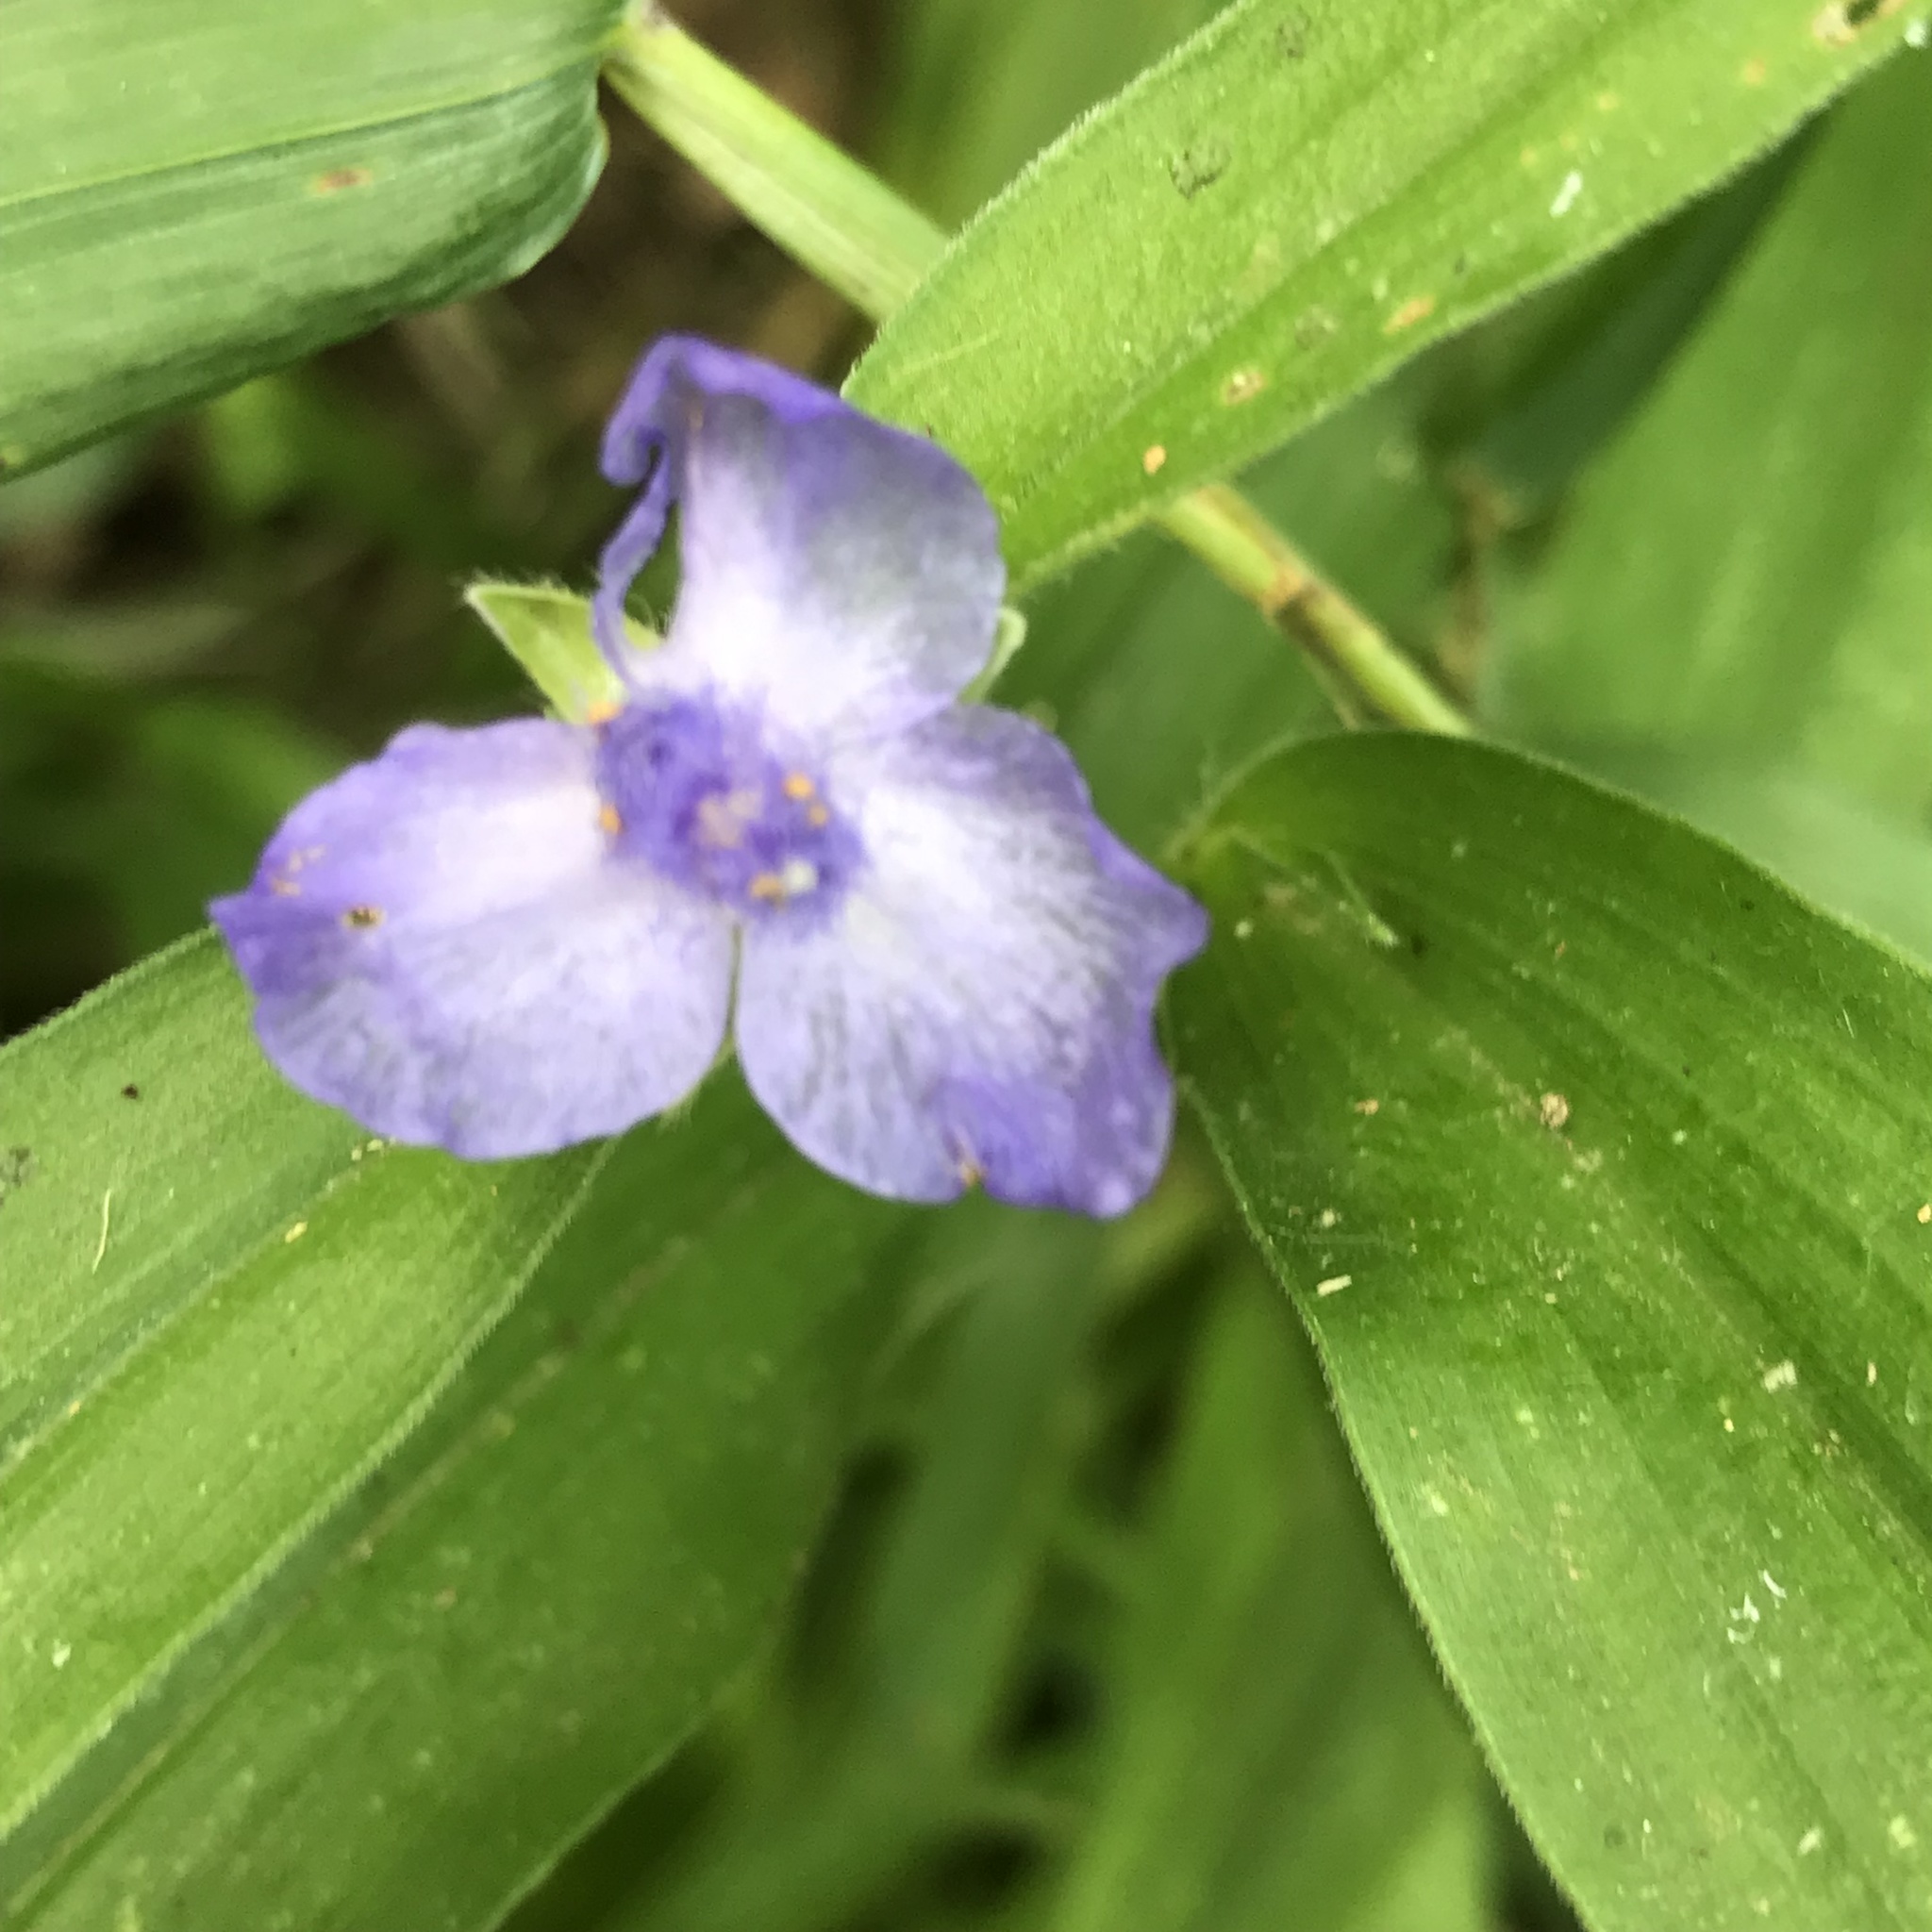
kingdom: Plantae
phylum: Tracheophyta
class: Liliopsida
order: Commelinales
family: Commelinaceae
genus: Tradescantia
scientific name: Tradescantia subaspera
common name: Wide-leaf spiderwort
